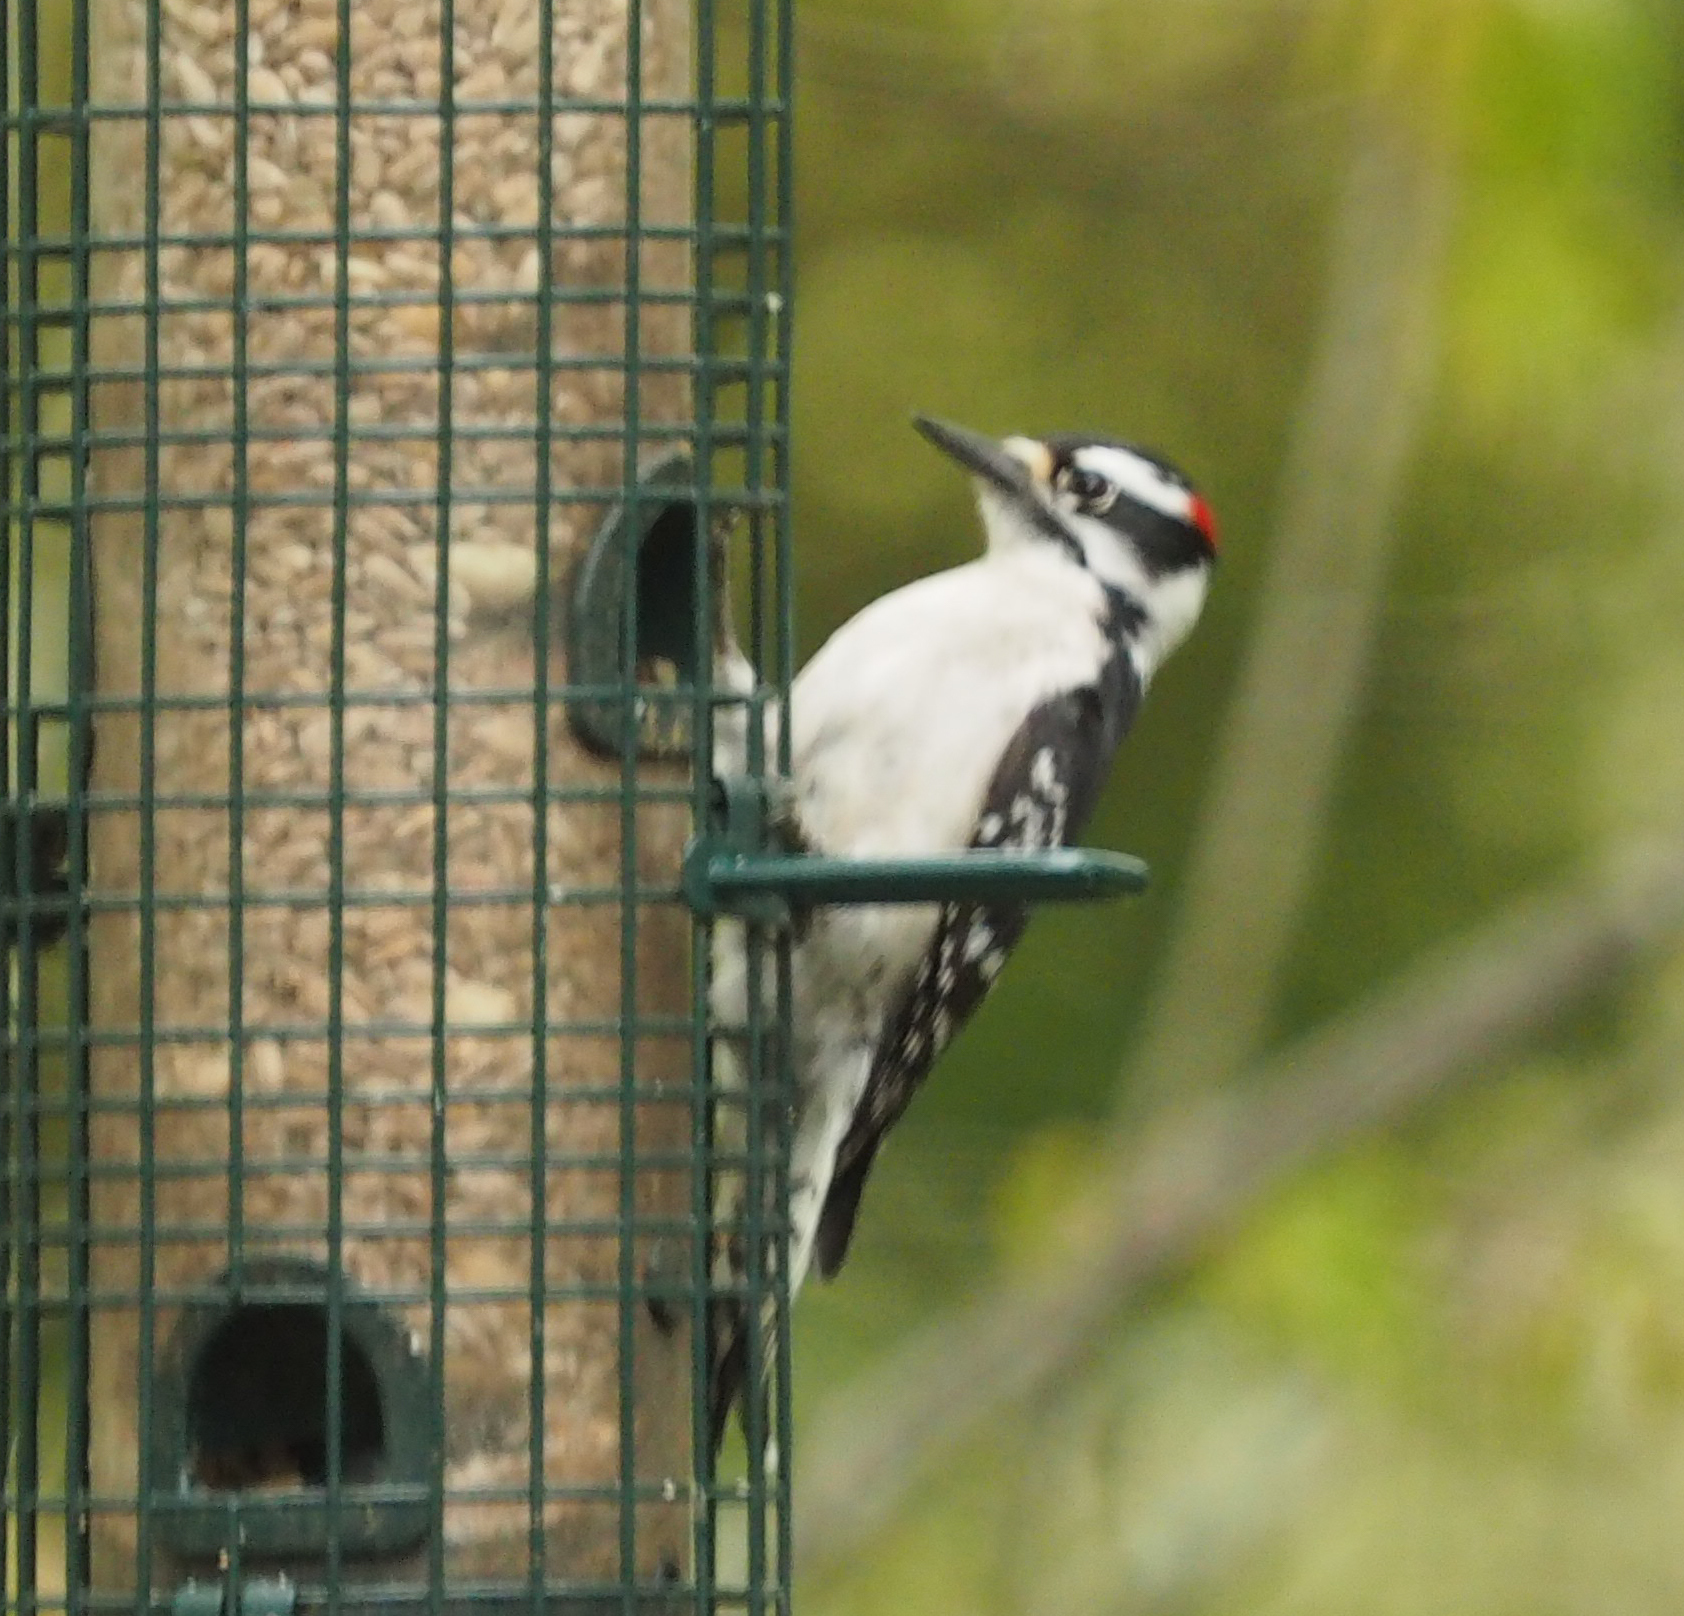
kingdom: Animalia
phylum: Chordata
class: Aves
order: Piciformes
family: Picidae
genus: Dryobates
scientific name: Dryobates pubescens
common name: Downy woodpecker
